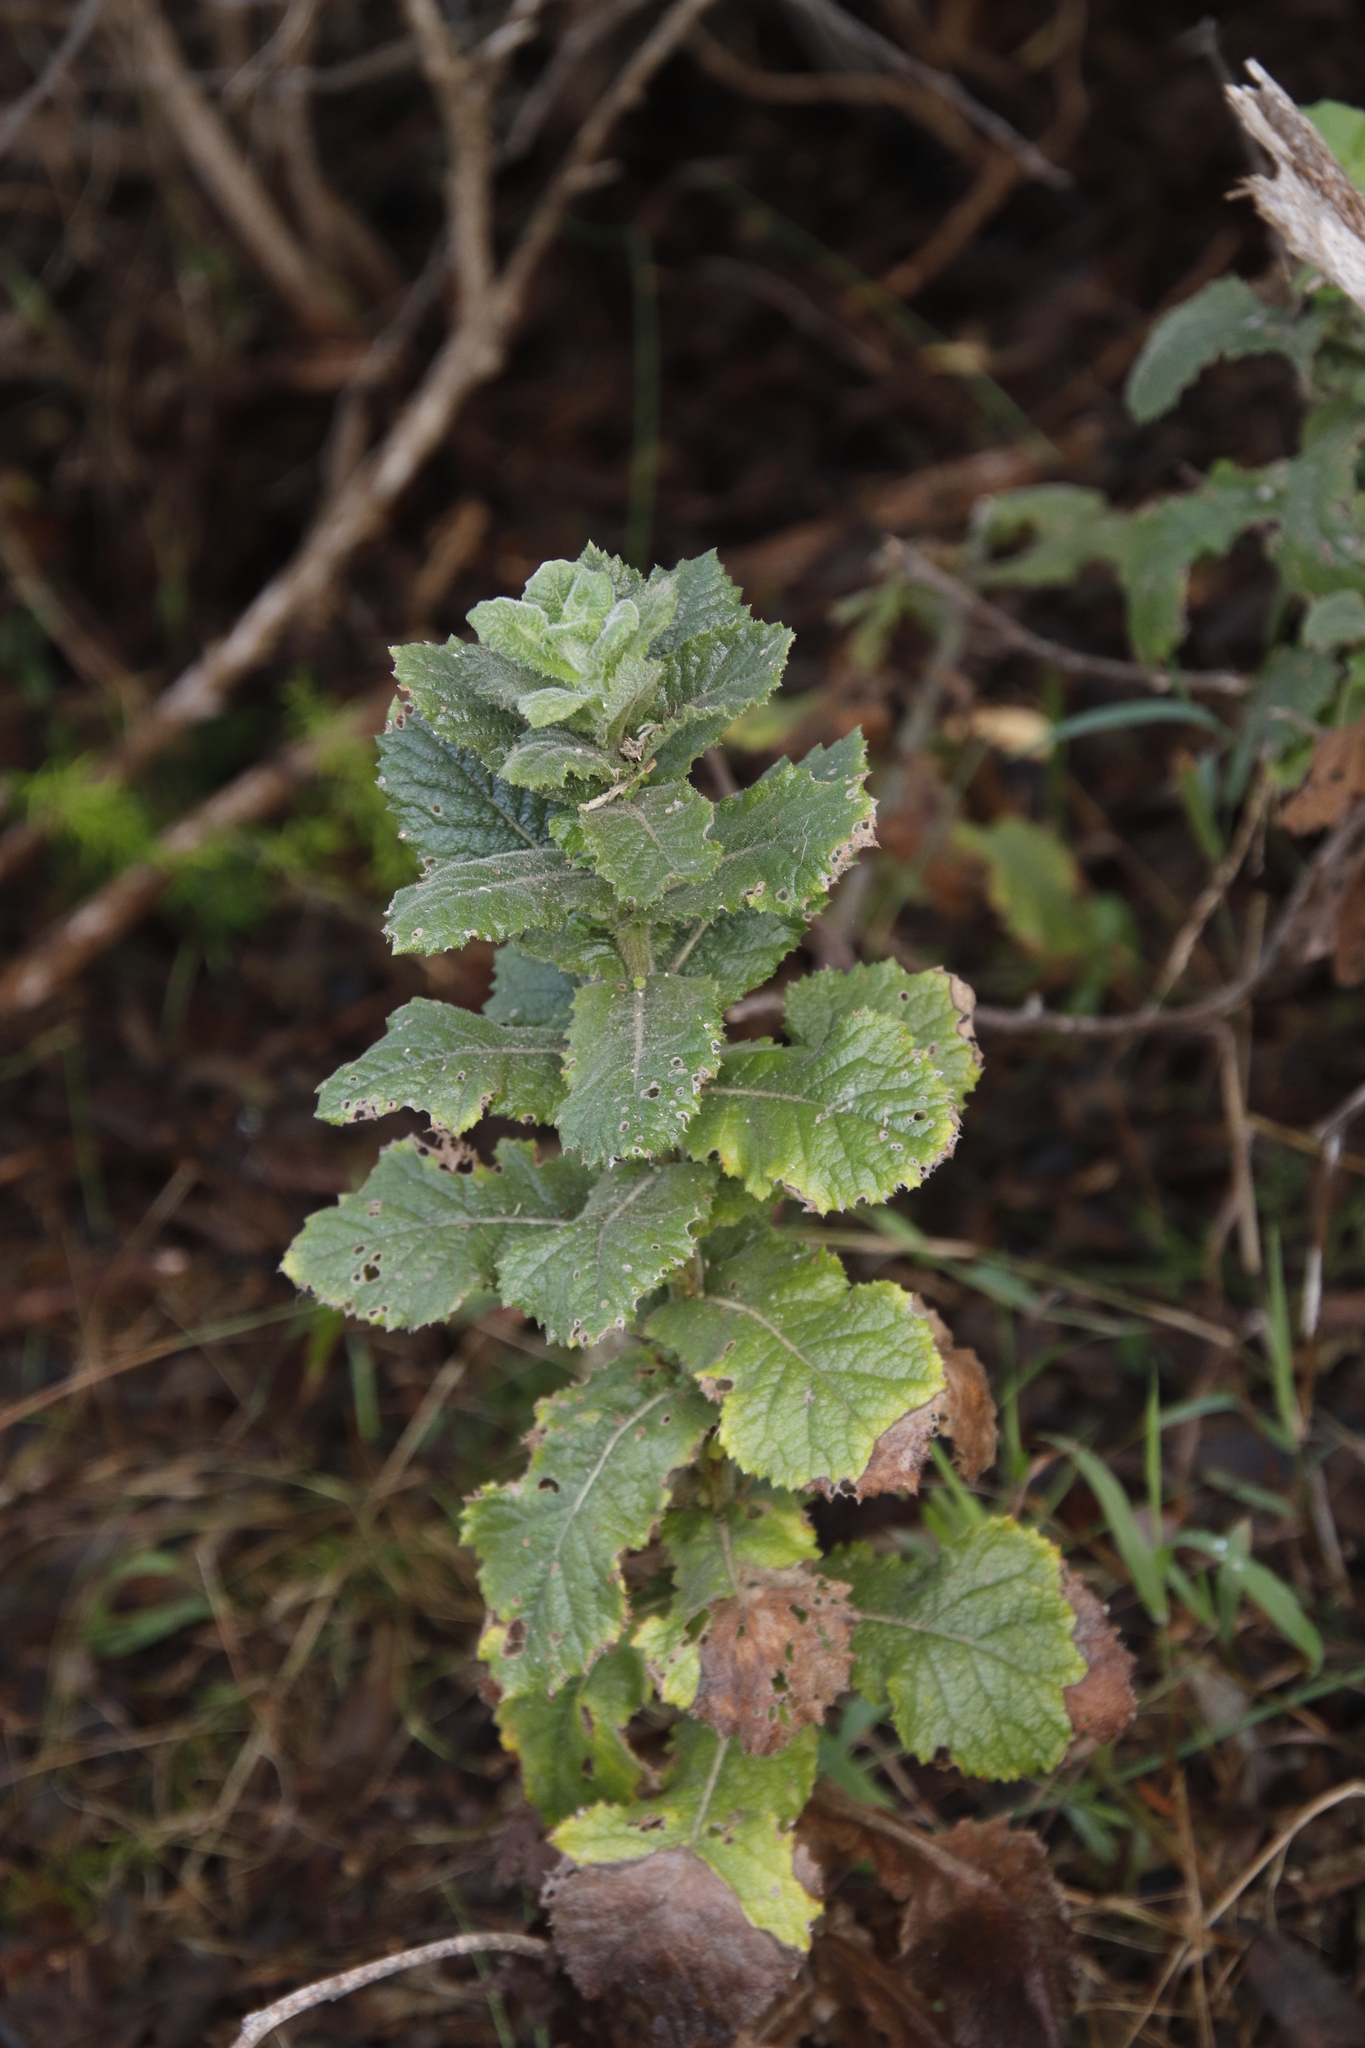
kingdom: Plantae
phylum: Tracheophyta
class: Magnoliopsida
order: Asterales
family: Asteraceae
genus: Senecio
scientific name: Senecio rigidus
